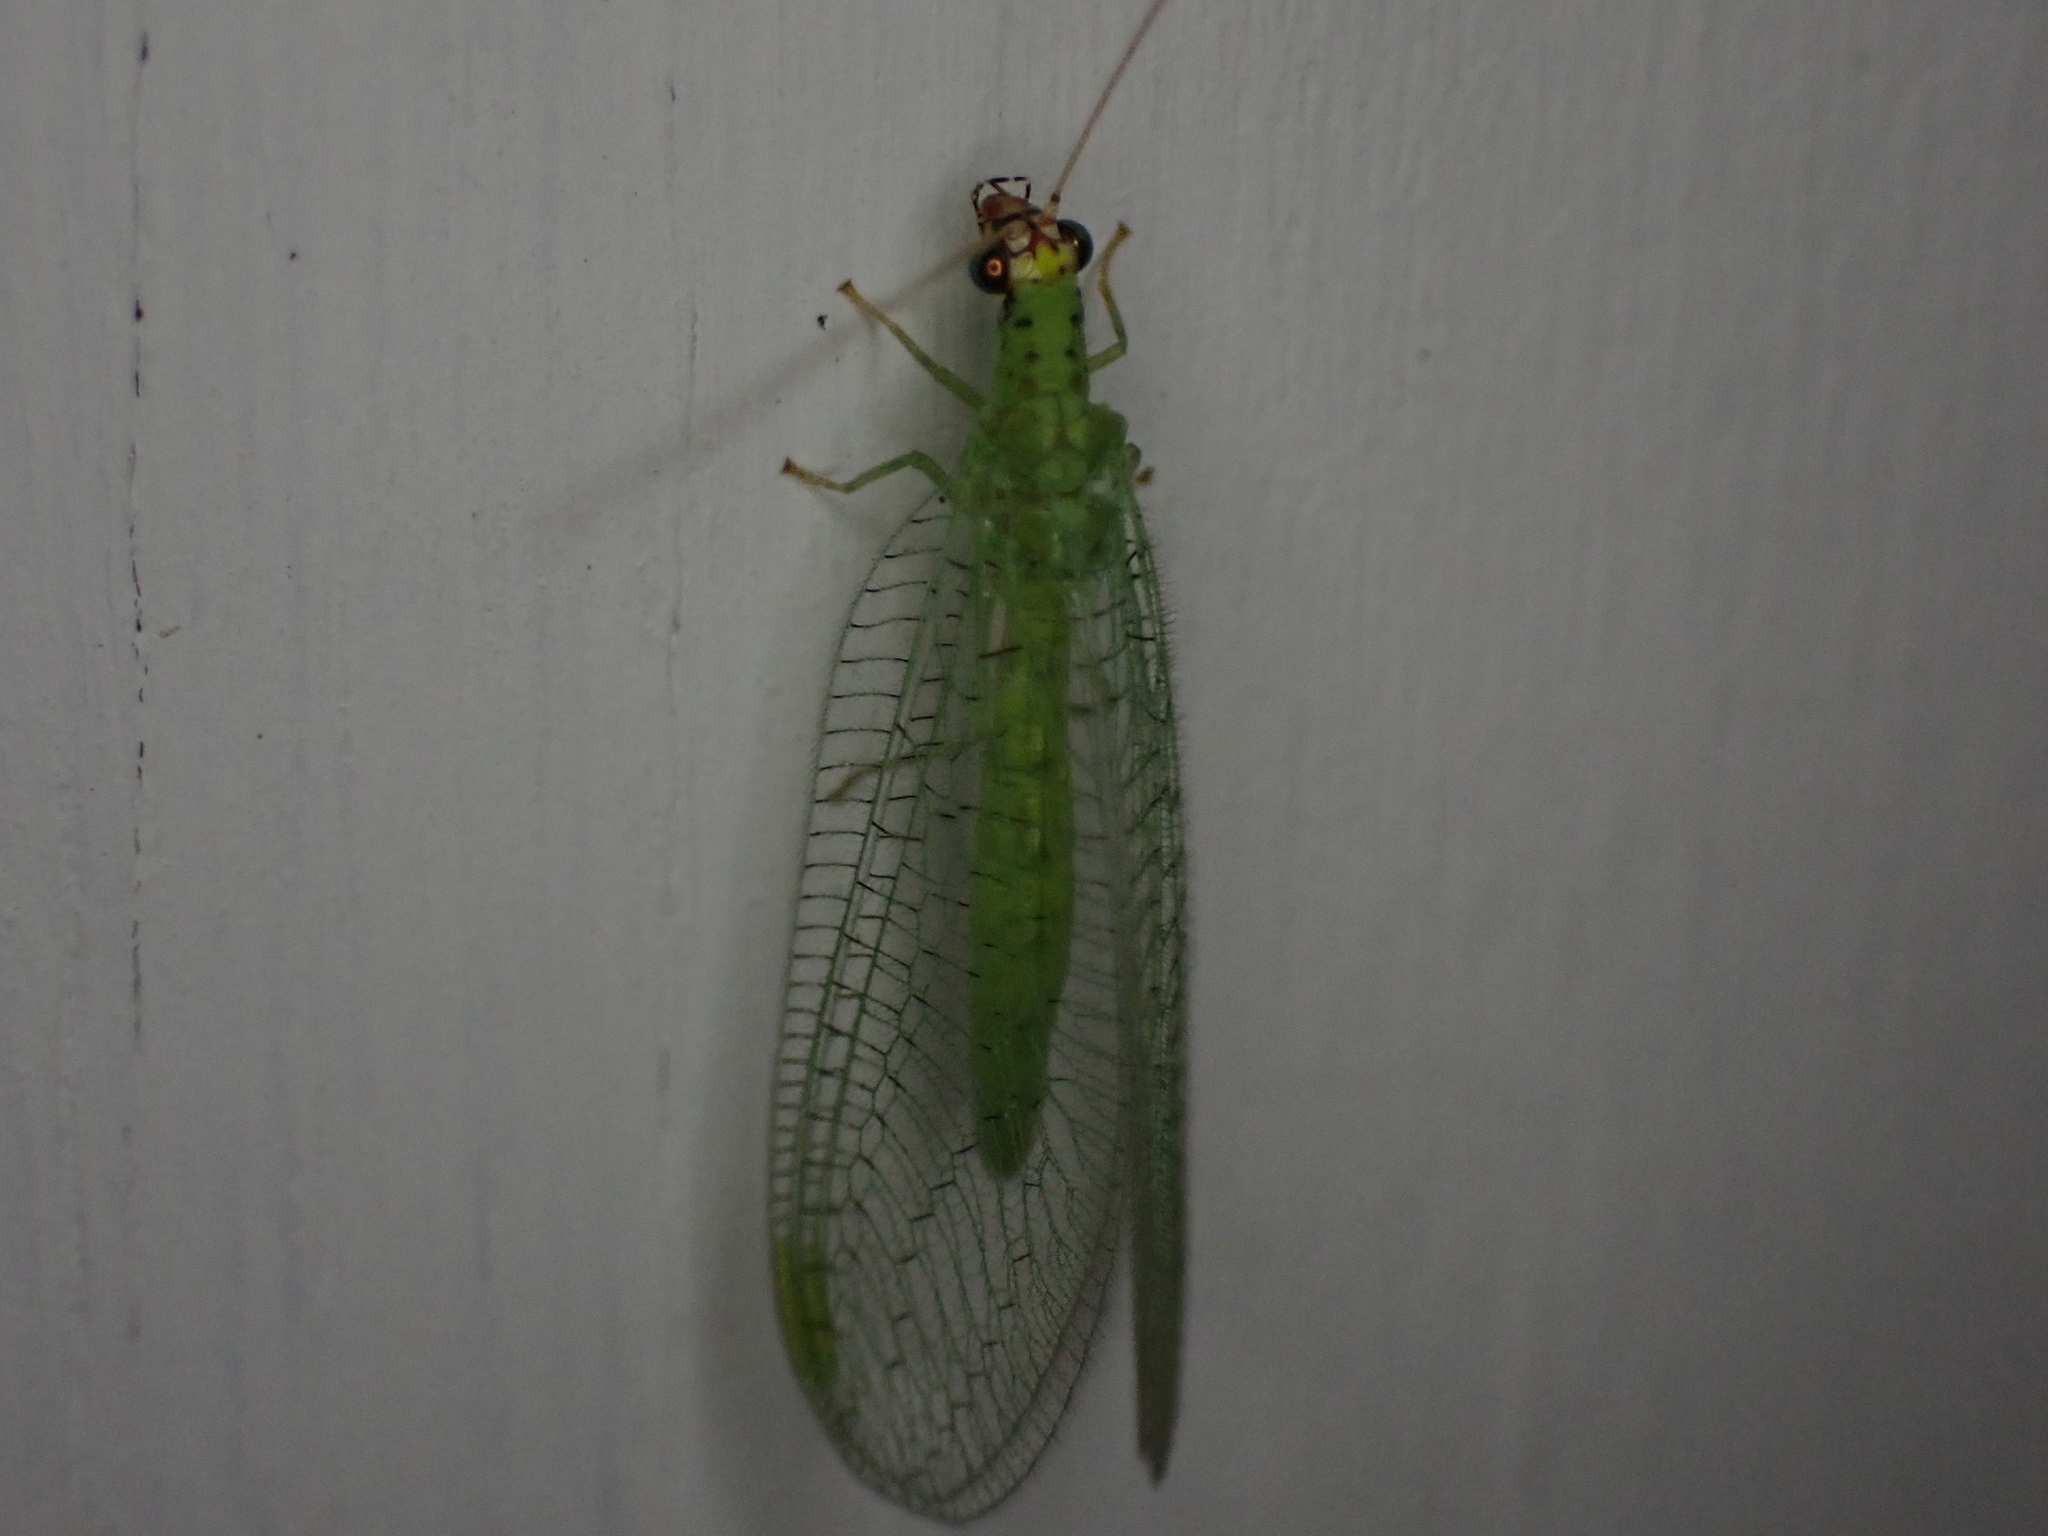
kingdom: Animalia
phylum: Arthropoda
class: Insecta
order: Neuroptera
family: Chrysopidae
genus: Chrysopa
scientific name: Chrysopa oculata
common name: Golden-eyed lacewing
